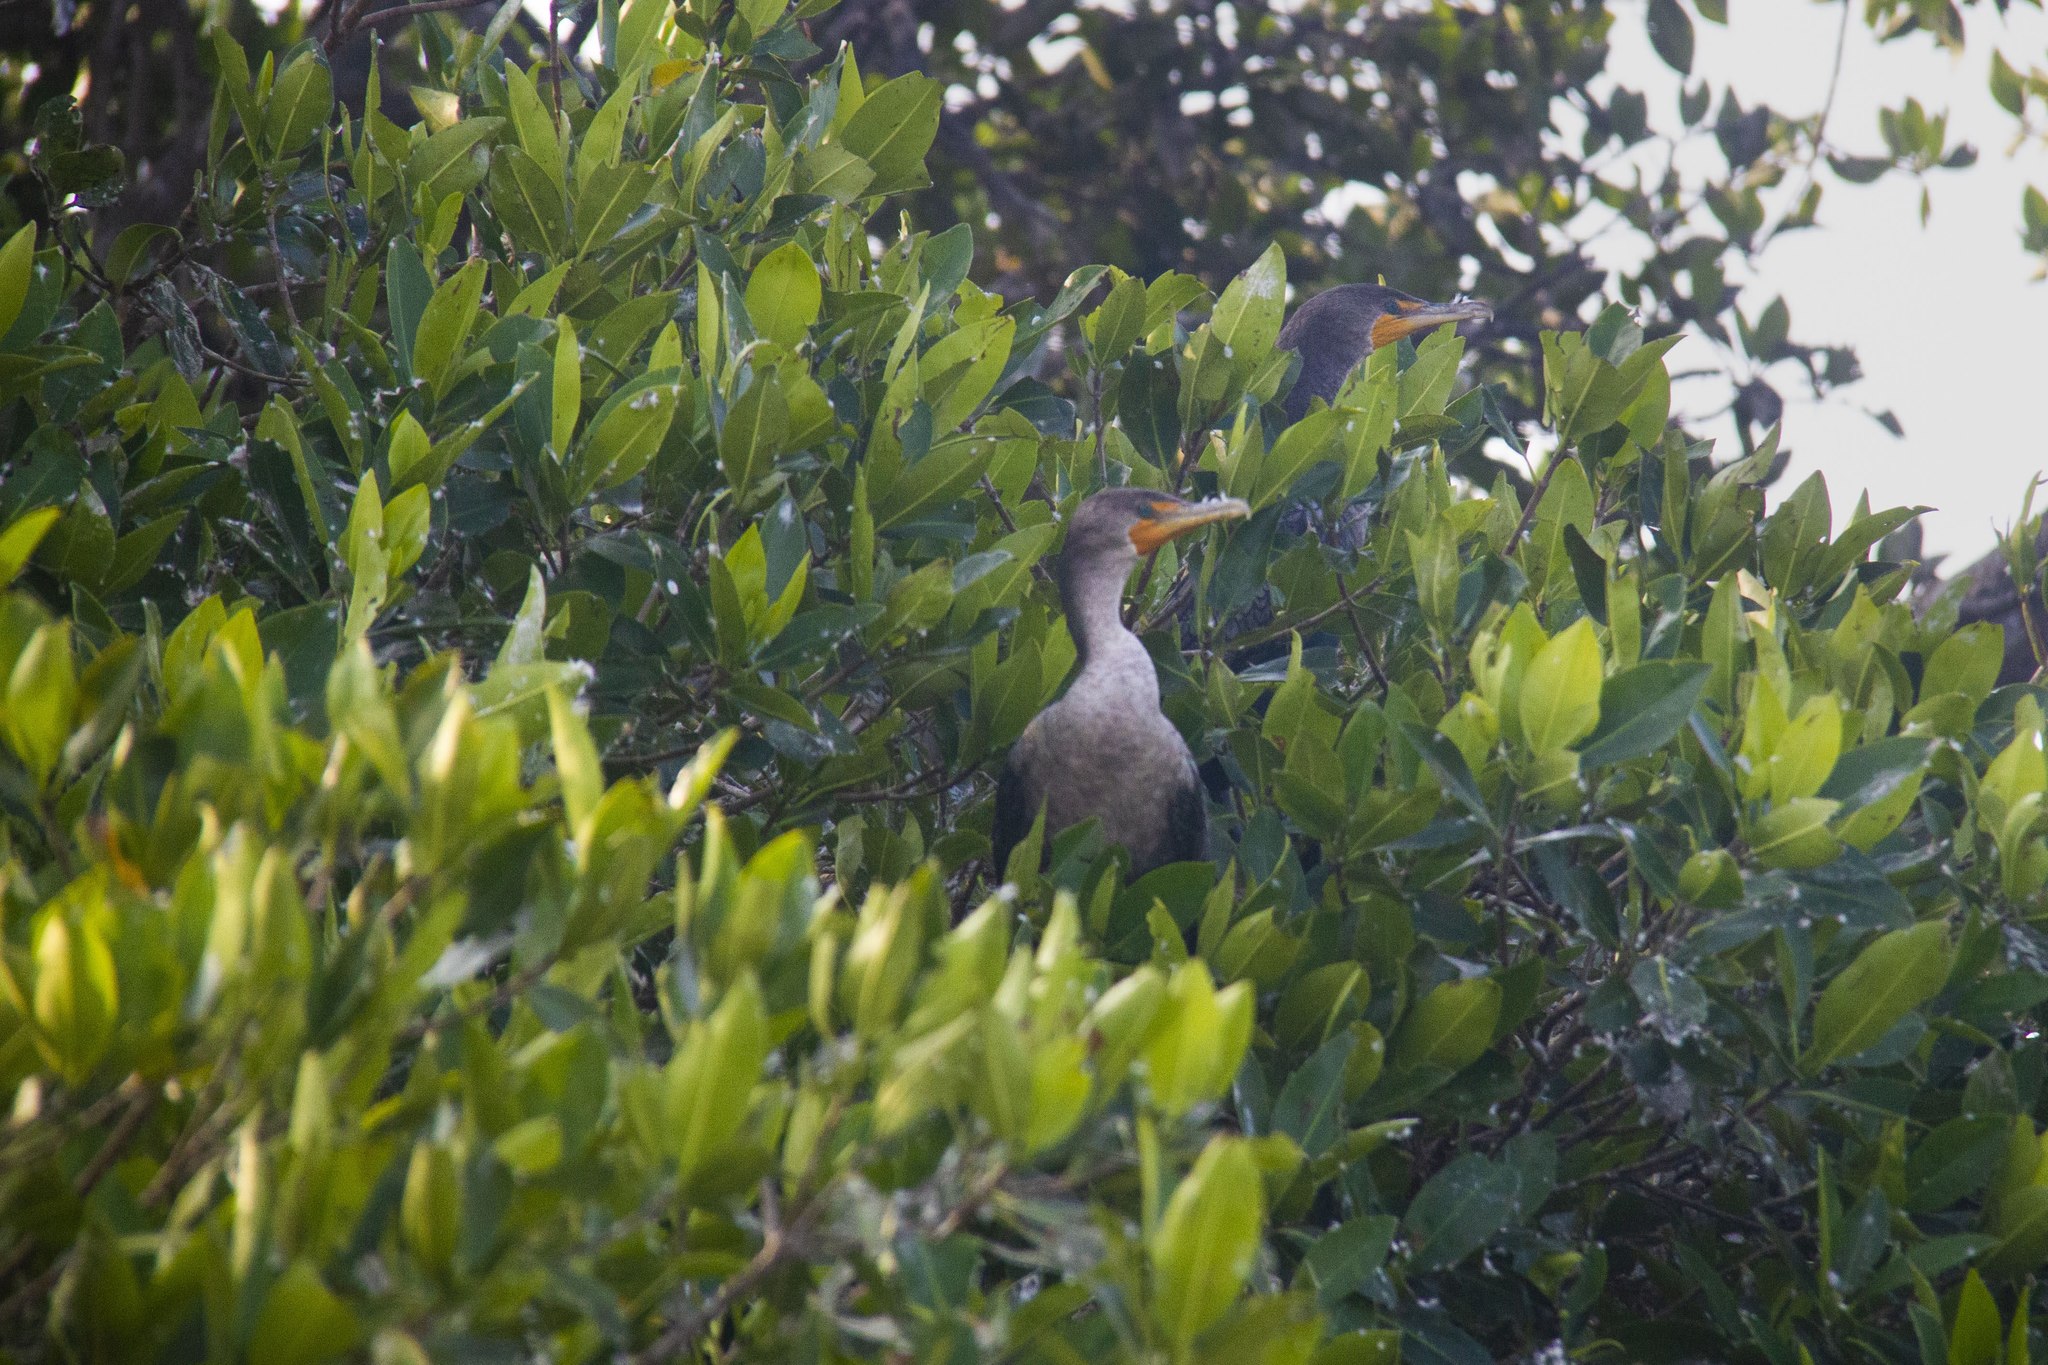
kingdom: Animalia
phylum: Chordata
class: Aves
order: Suliformes
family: Phalacrocoracidae
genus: Phalacrocorax
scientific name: Phalacrocorax auritus
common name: Double-crested cormorant
